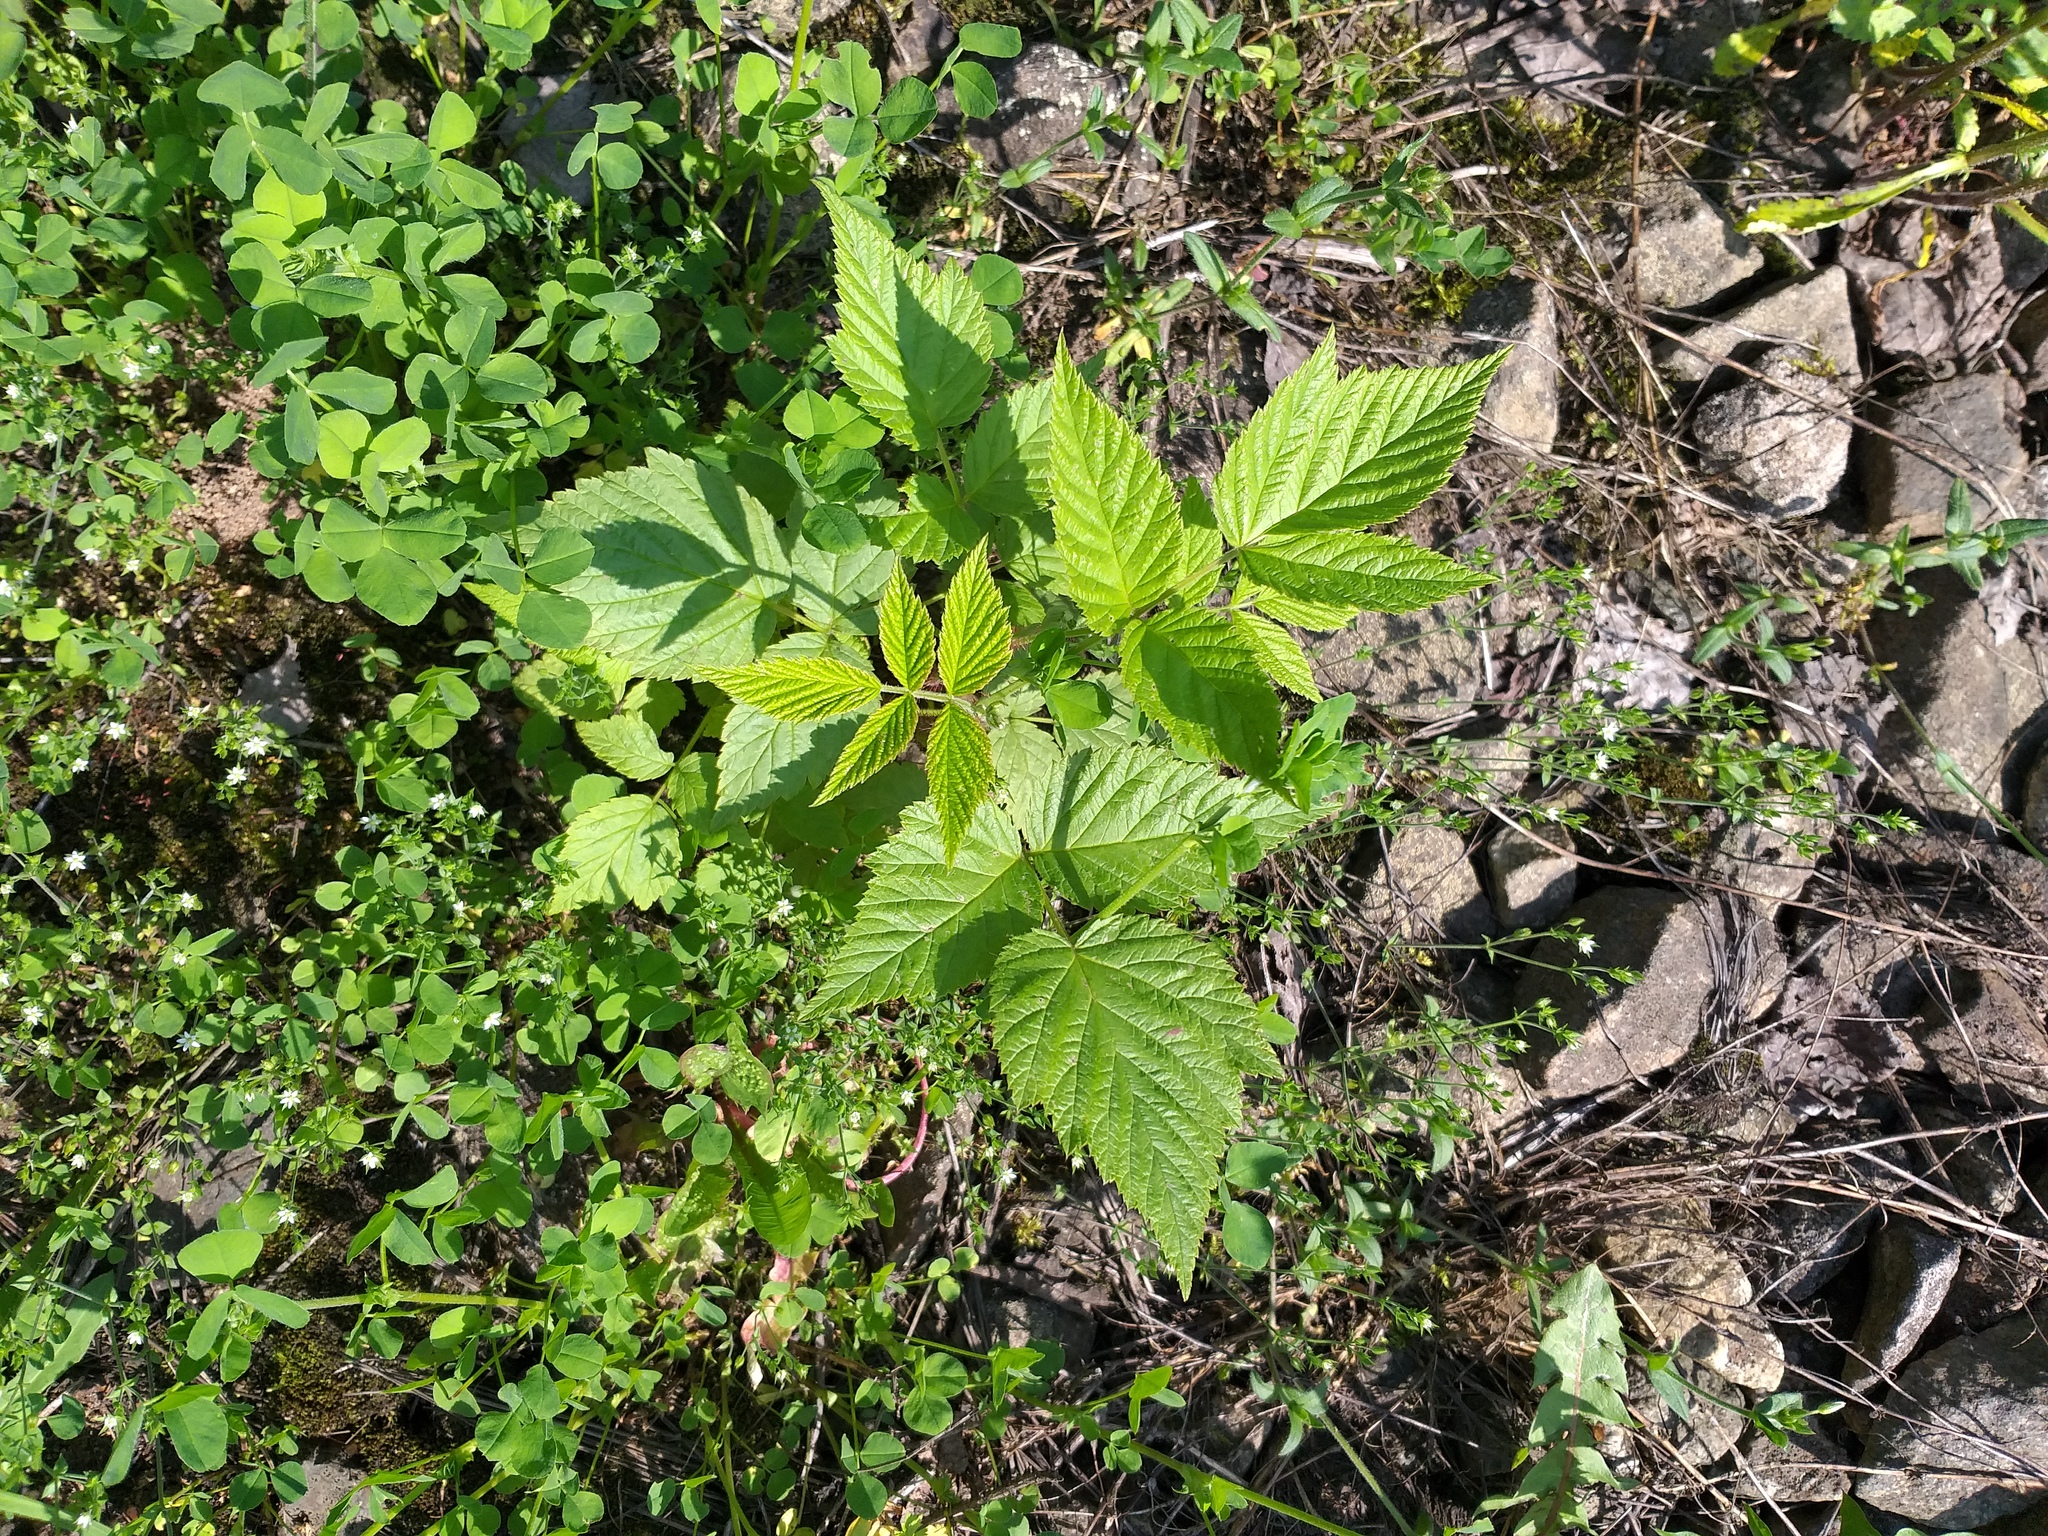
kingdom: Plantae
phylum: Tracheophyta
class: Magnoliopsida
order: Rosales
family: Rosaceae
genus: Rubus
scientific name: Rubus idaeus
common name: Raspberry
